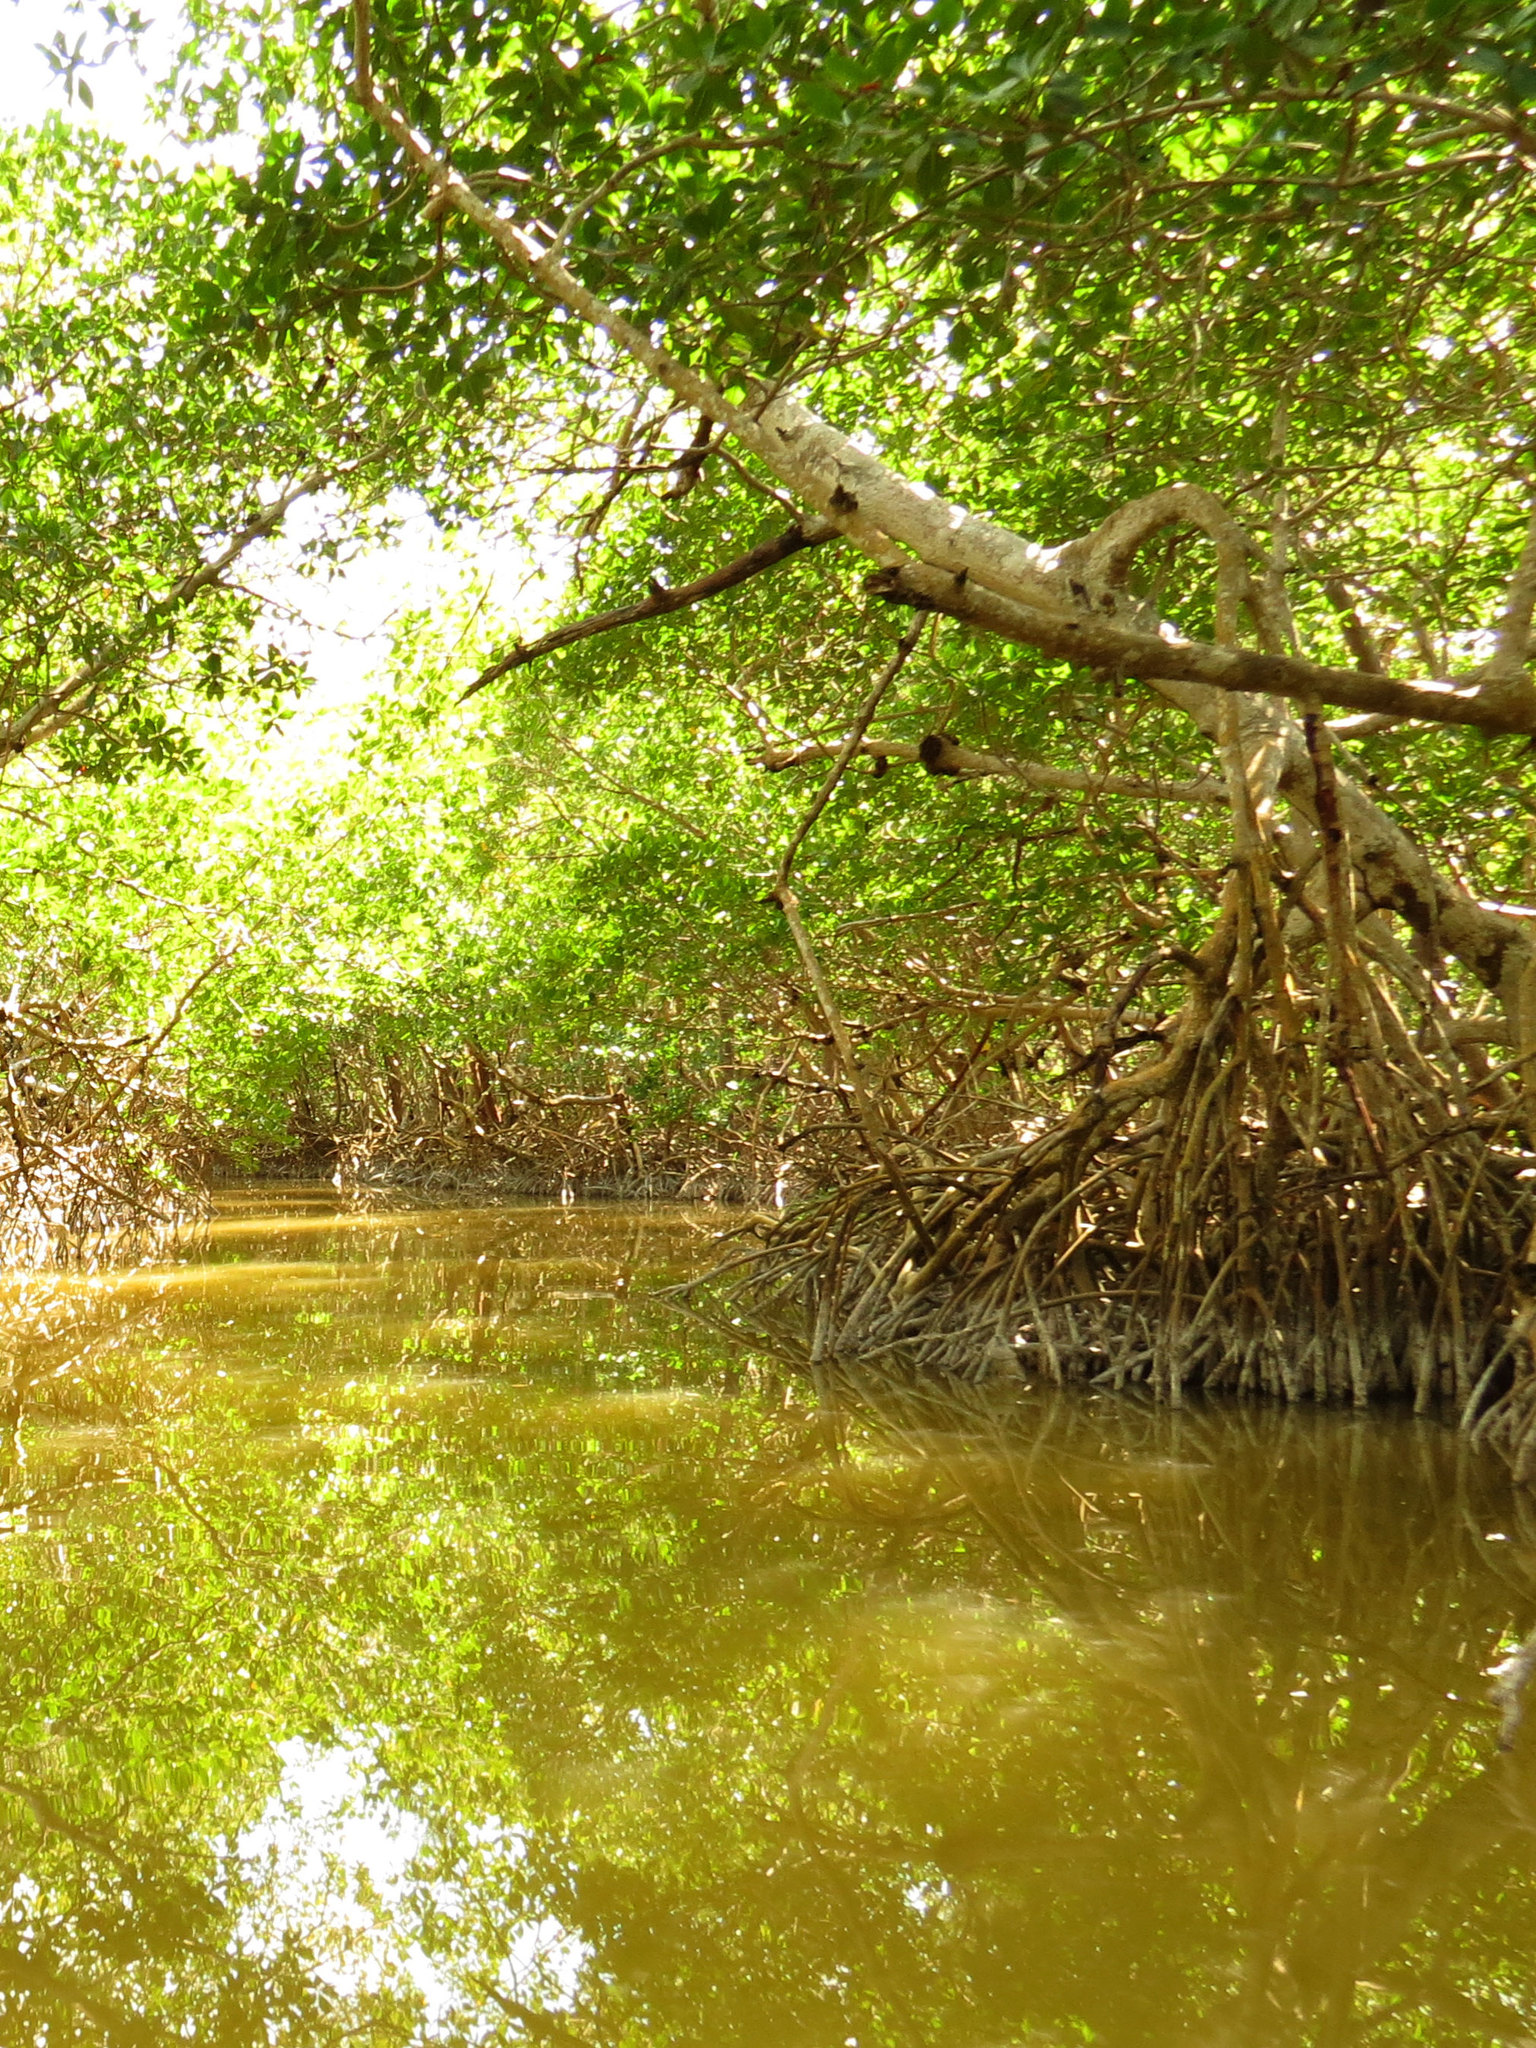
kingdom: Plantae
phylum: Tracheophyta
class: Magnoliopsida
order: Malpighiales
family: Rhizophoraceae
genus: Rhizophora
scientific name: Rhizophora mangle
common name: Red mangrove
